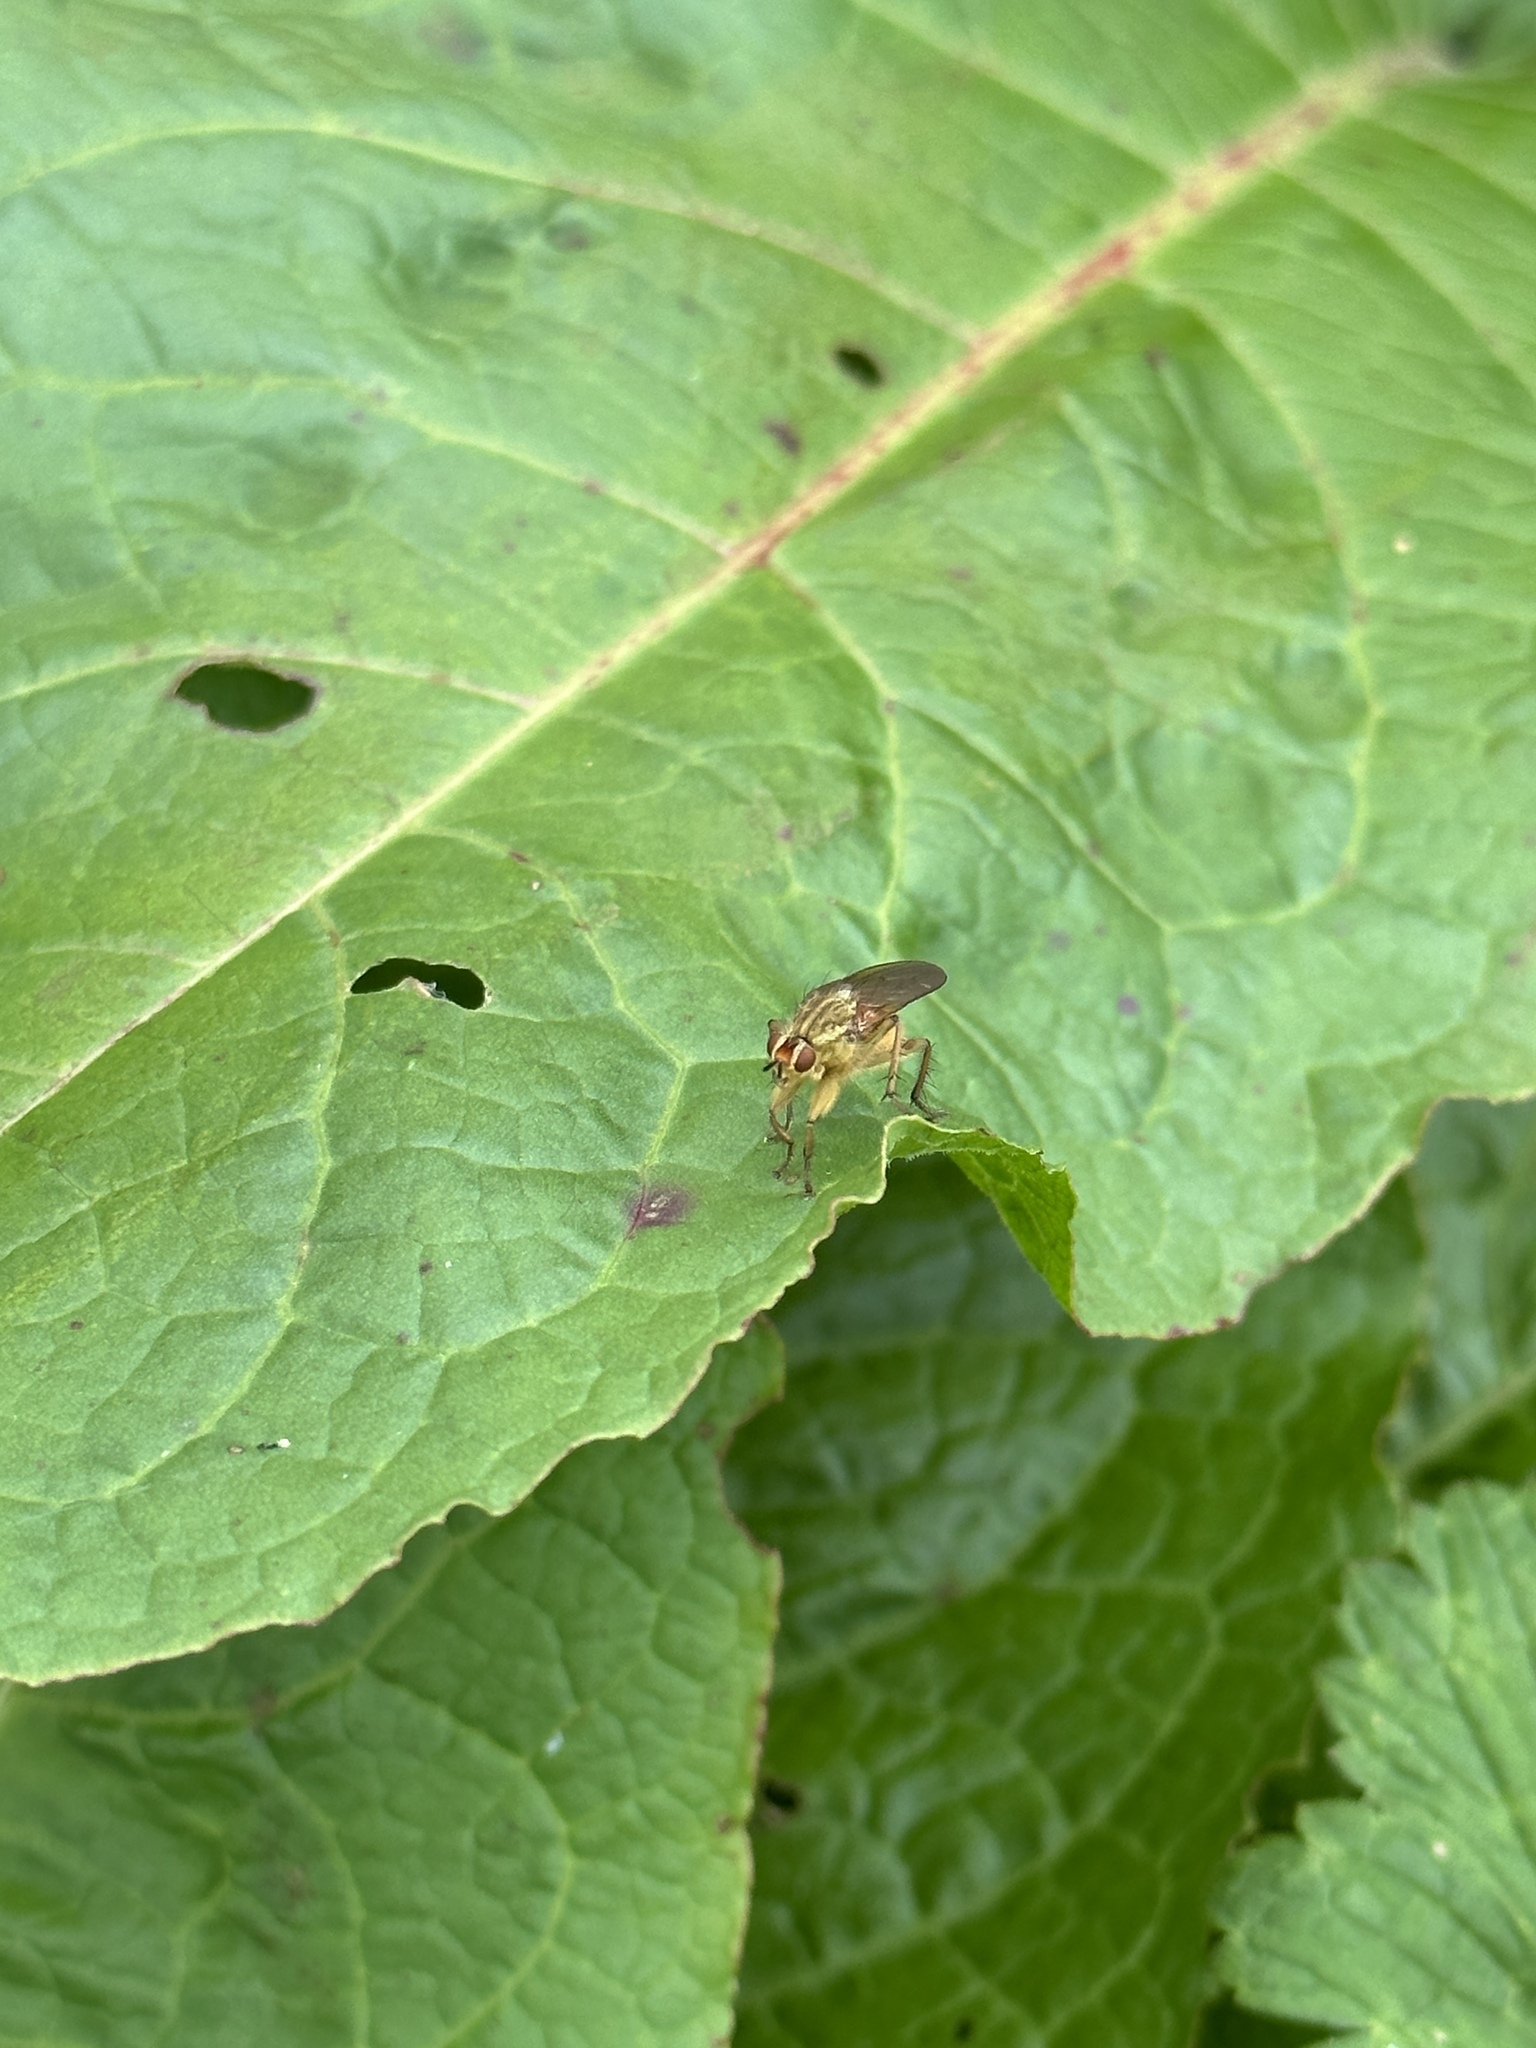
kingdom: Animalia
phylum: Arthropoda
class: Insecta
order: Diptera
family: Scathophagidae
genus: Scathophaga
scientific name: Scathophaga stercoraria
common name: Yellow dung fly
